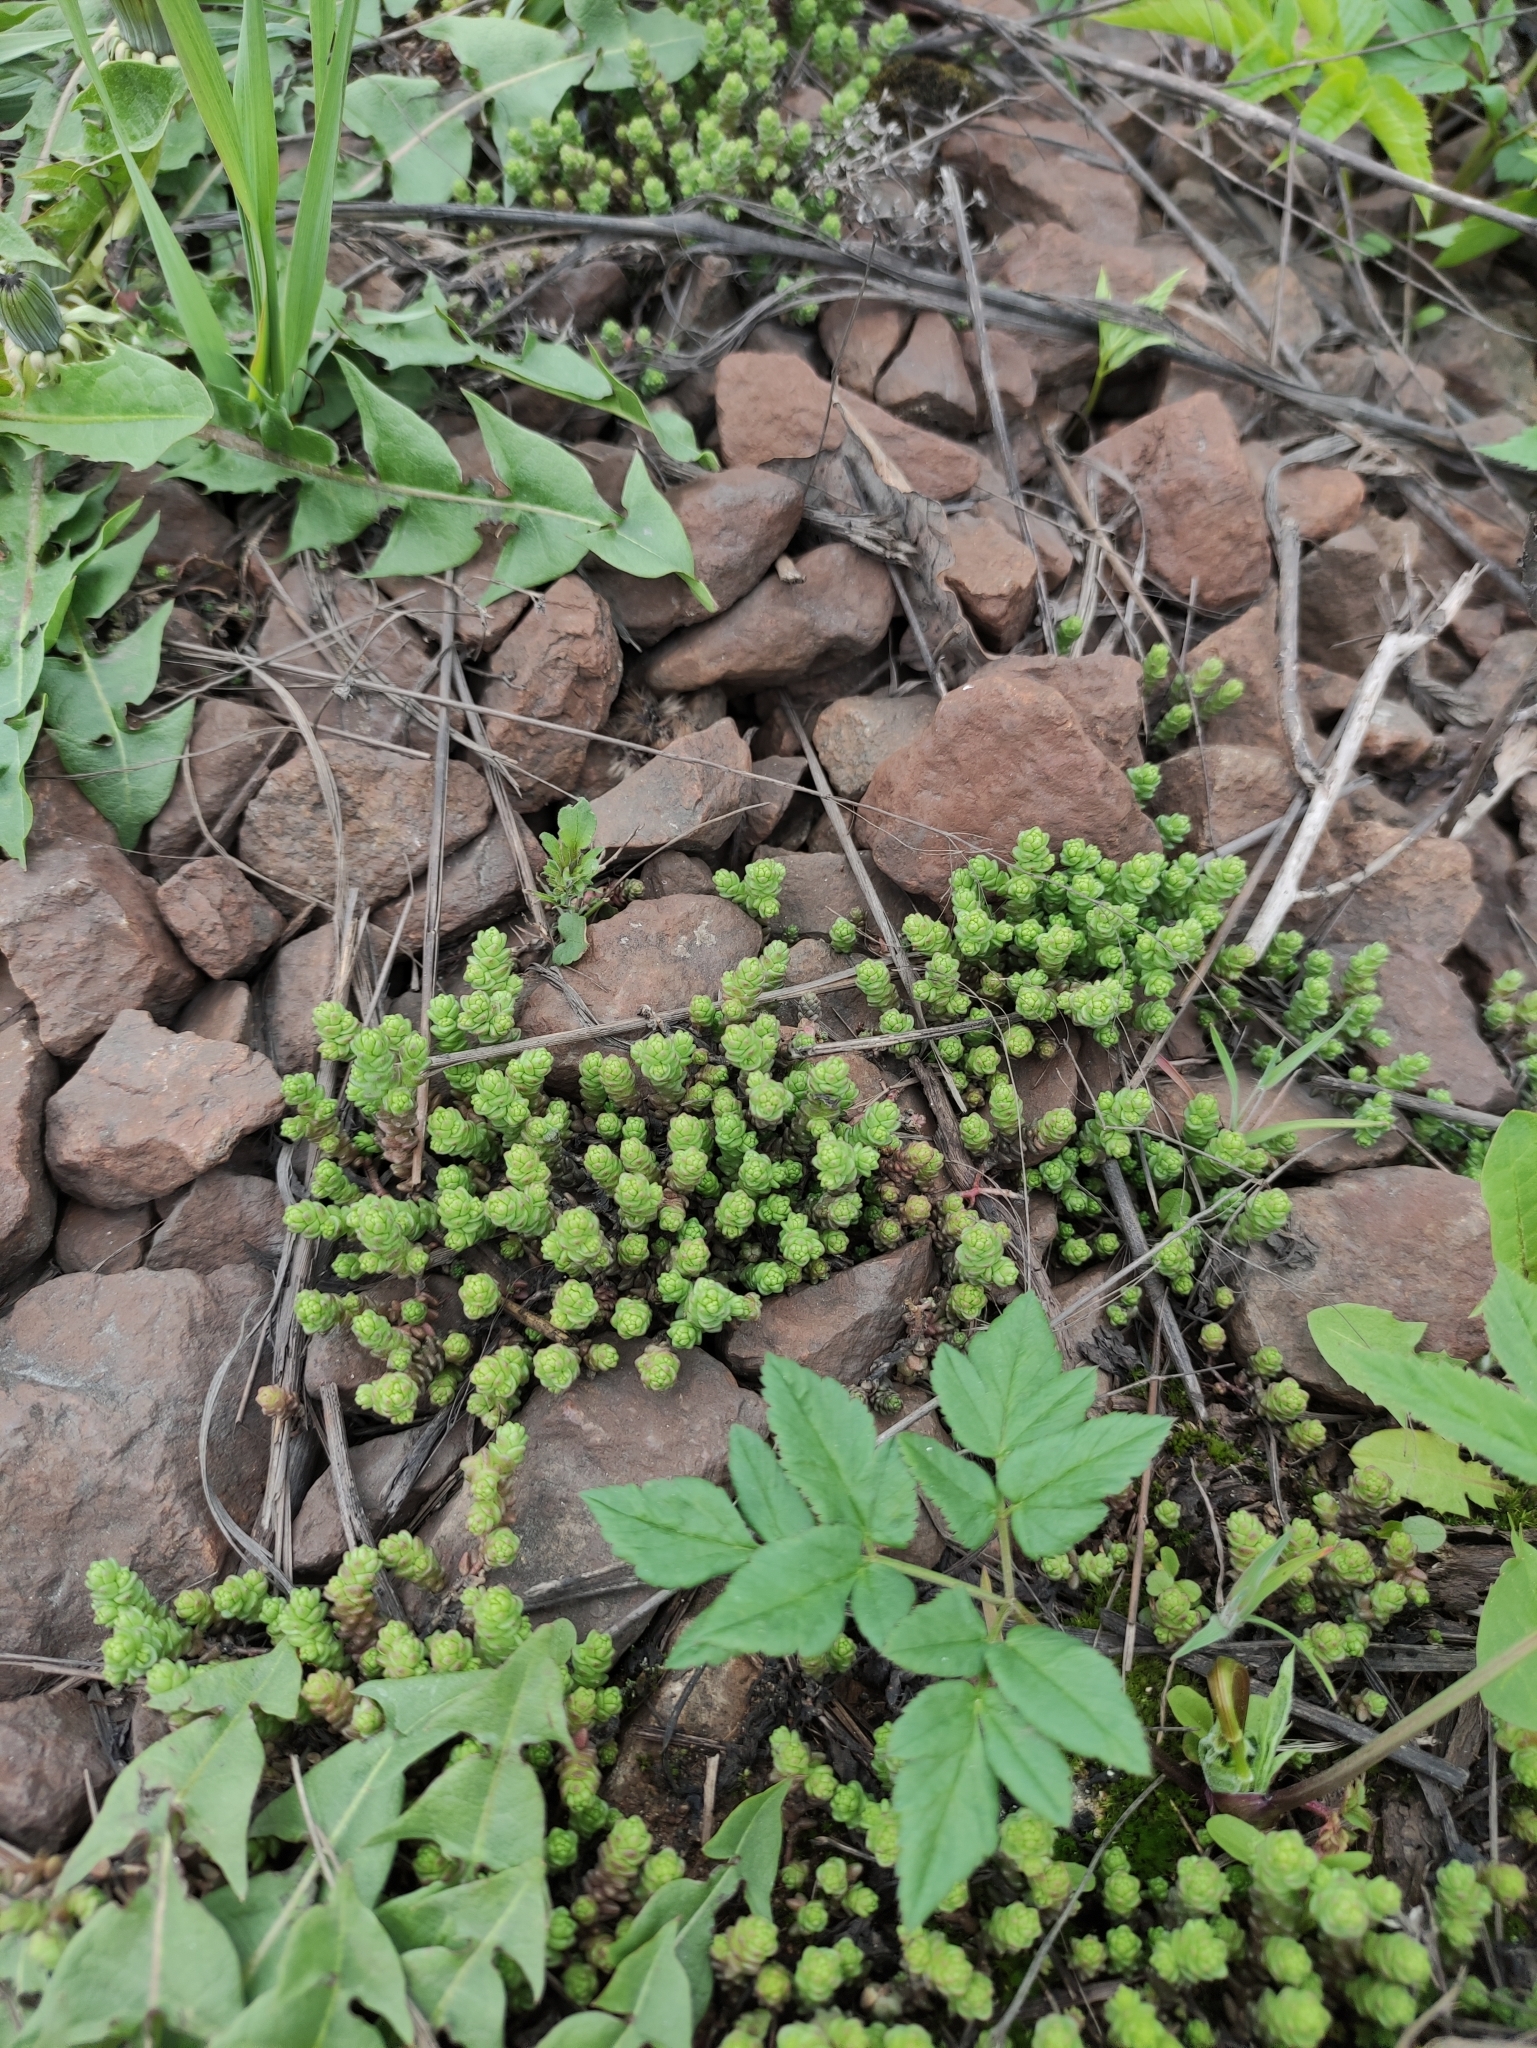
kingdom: Plantae
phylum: Tracheophyta
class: Magnoliopsida
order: Saxifragales
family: Crassulaceae
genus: Sedum
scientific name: Sedum acre
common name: Biting stonecrop
